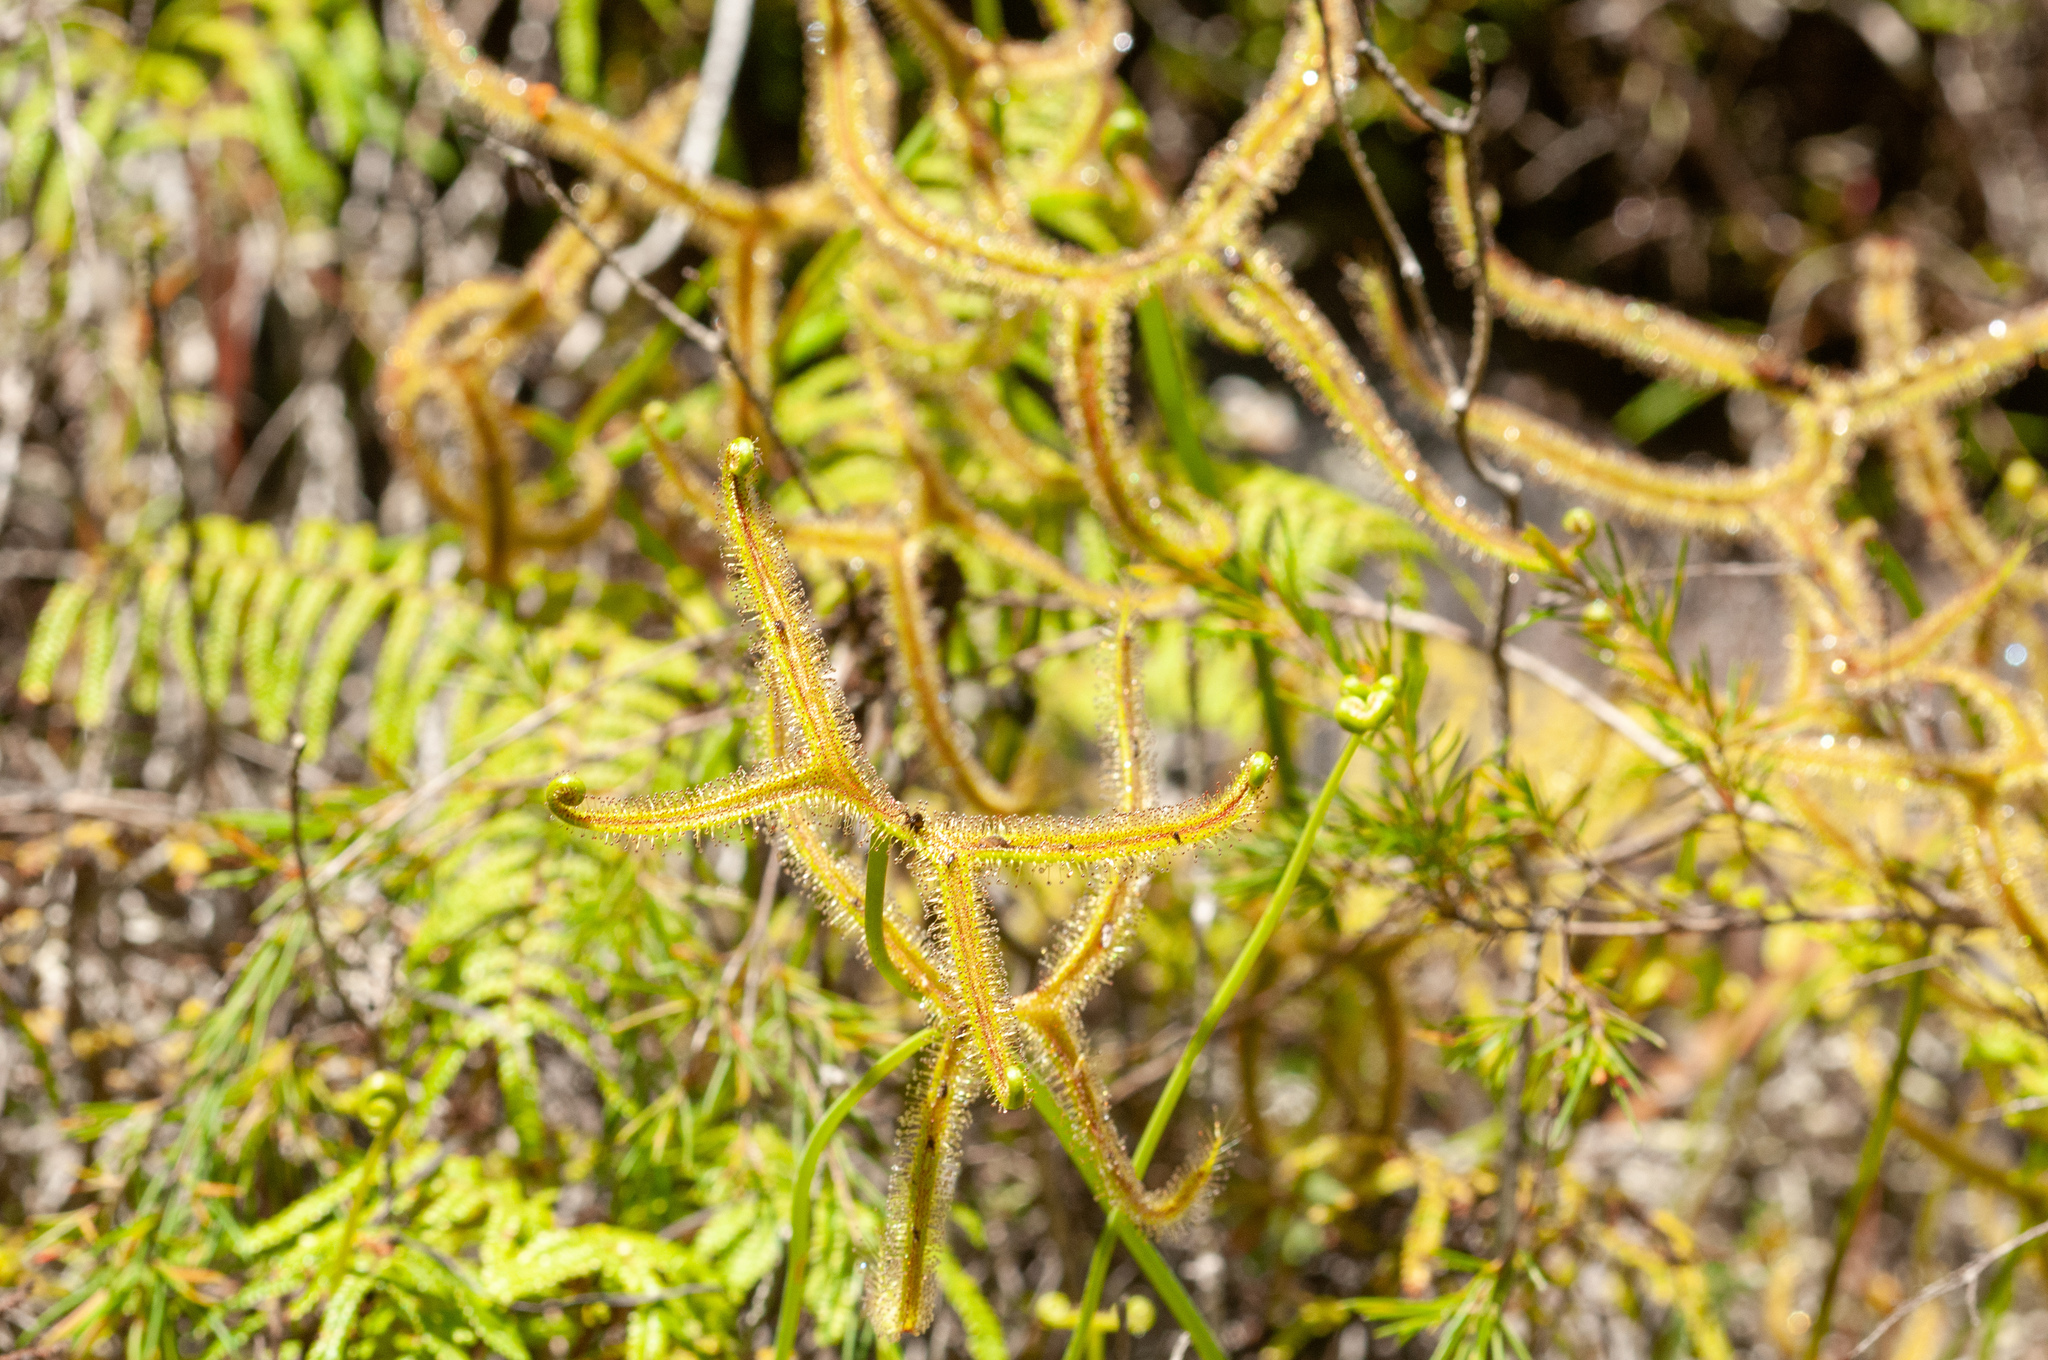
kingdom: Plantae
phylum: Tracheophyta
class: Magnoliopsida
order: Caryophyllales
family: Droseraceae
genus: Drosera
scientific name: Drosera binata
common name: Forked sundew
